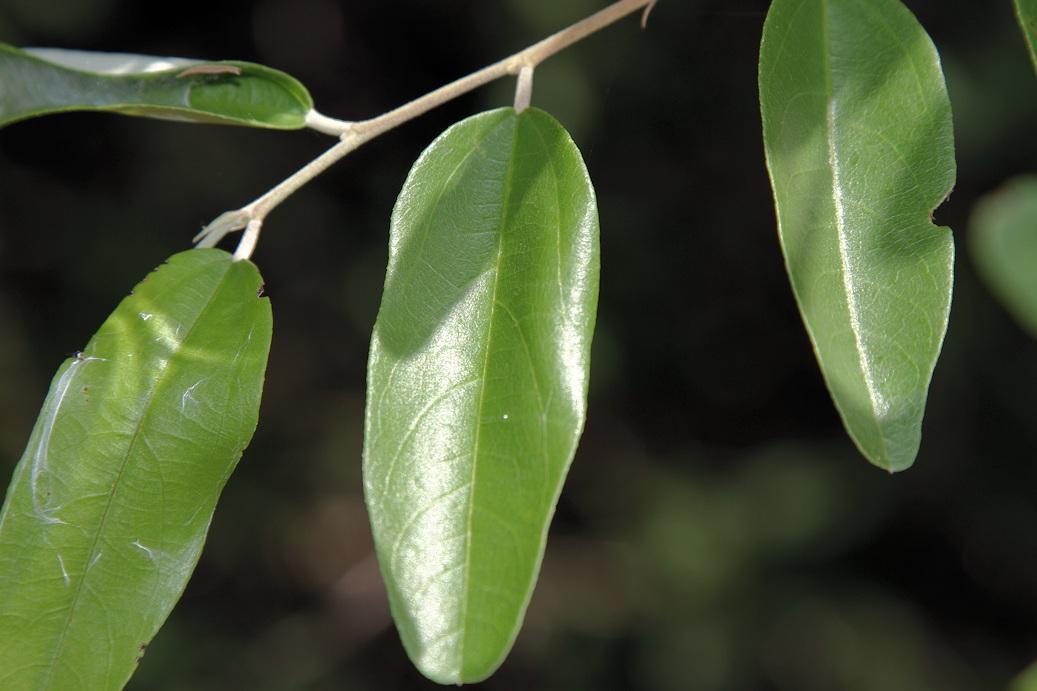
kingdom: Plantae
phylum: Tracheophyta
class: Magnoliopsida
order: Malvales
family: Malvaceae
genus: Grewia
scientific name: Grewia bicolor
